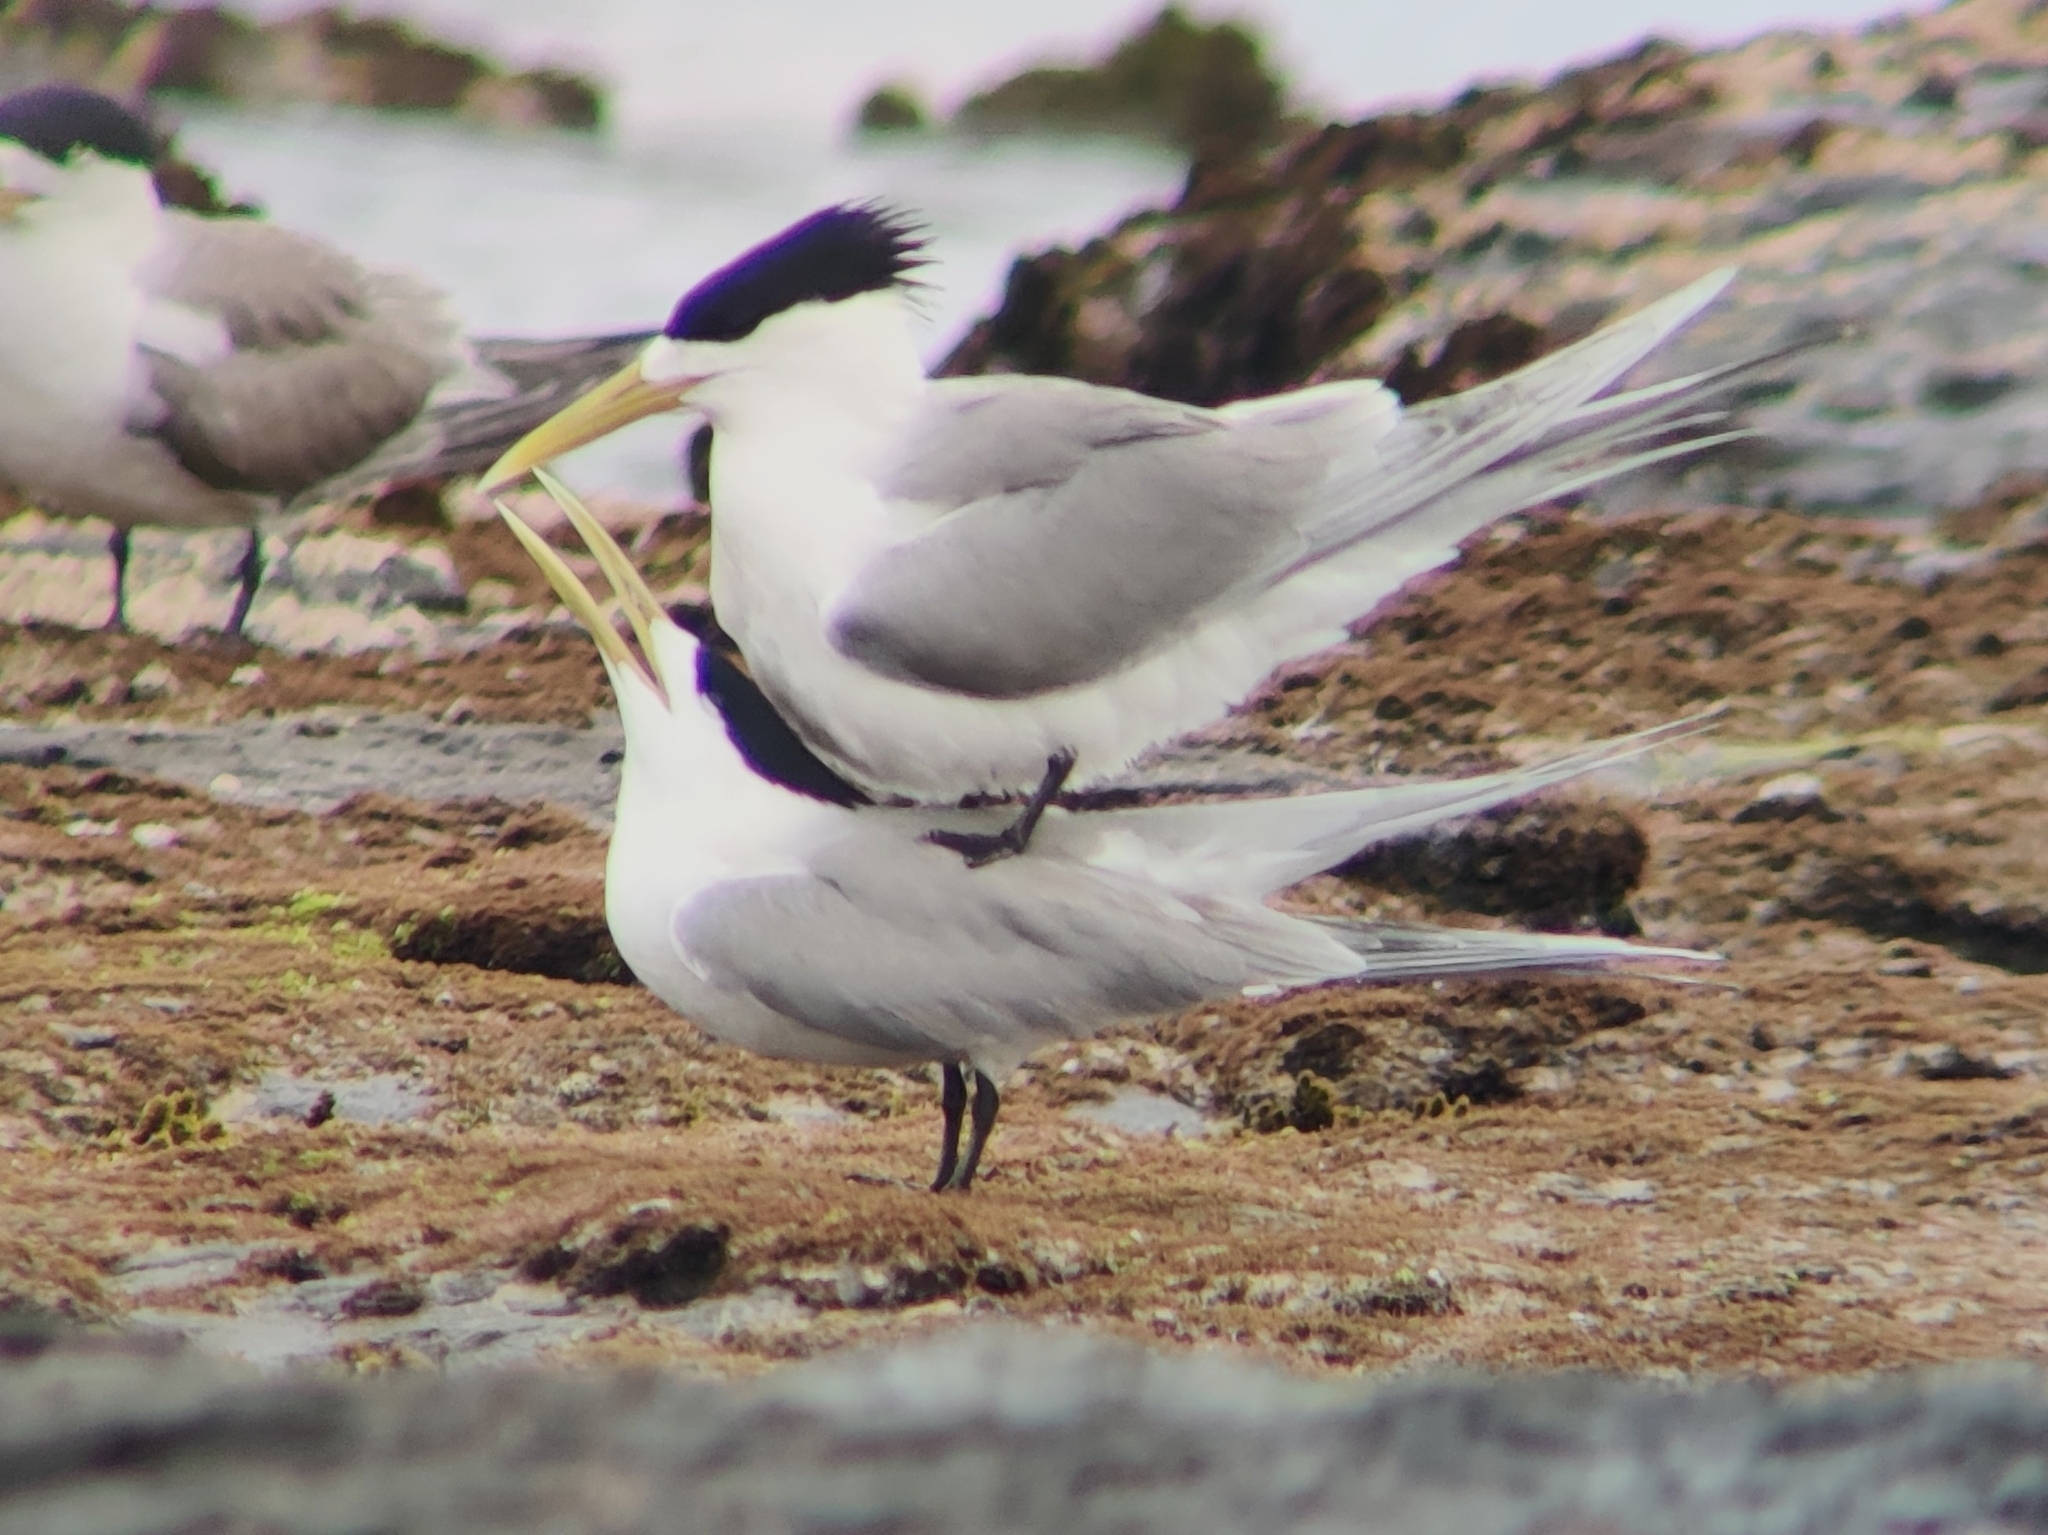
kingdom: Animalia
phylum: Chordata
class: Aves
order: Charadriiformes
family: Laridae
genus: Thalasseus
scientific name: Thalasseus bergii
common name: Greater crested tern
